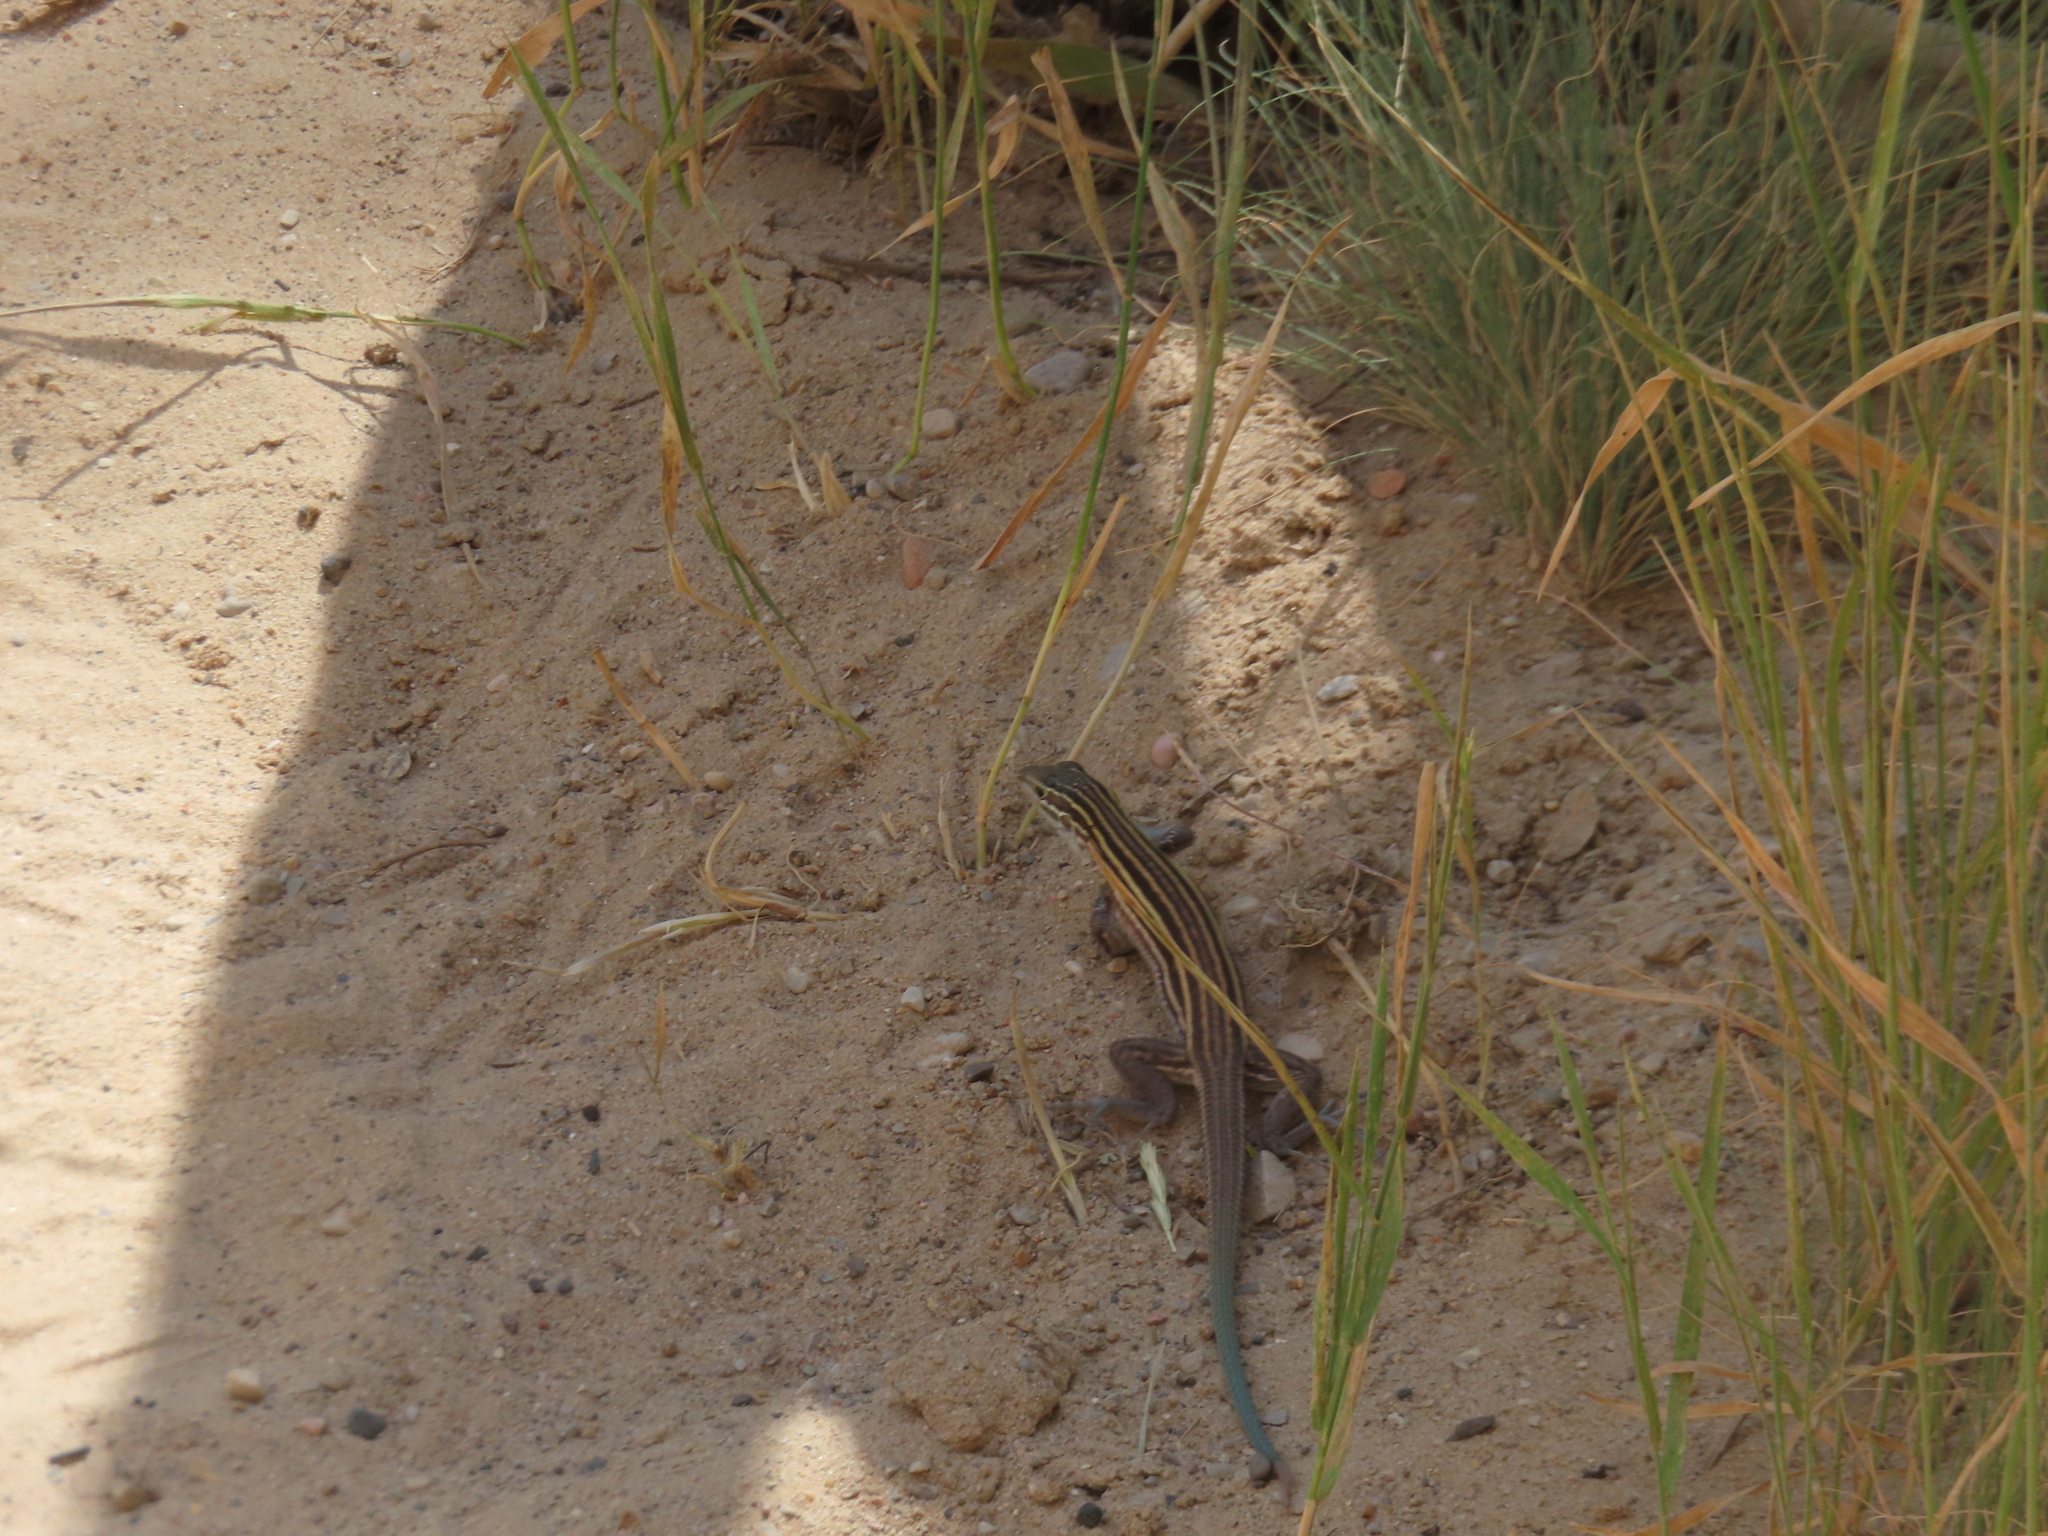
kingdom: Animalia
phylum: Chordata
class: Squamata
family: Teiidae
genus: Aspidoscelis
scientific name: Aspidoscelis velox
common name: Plateau striped whiptail
